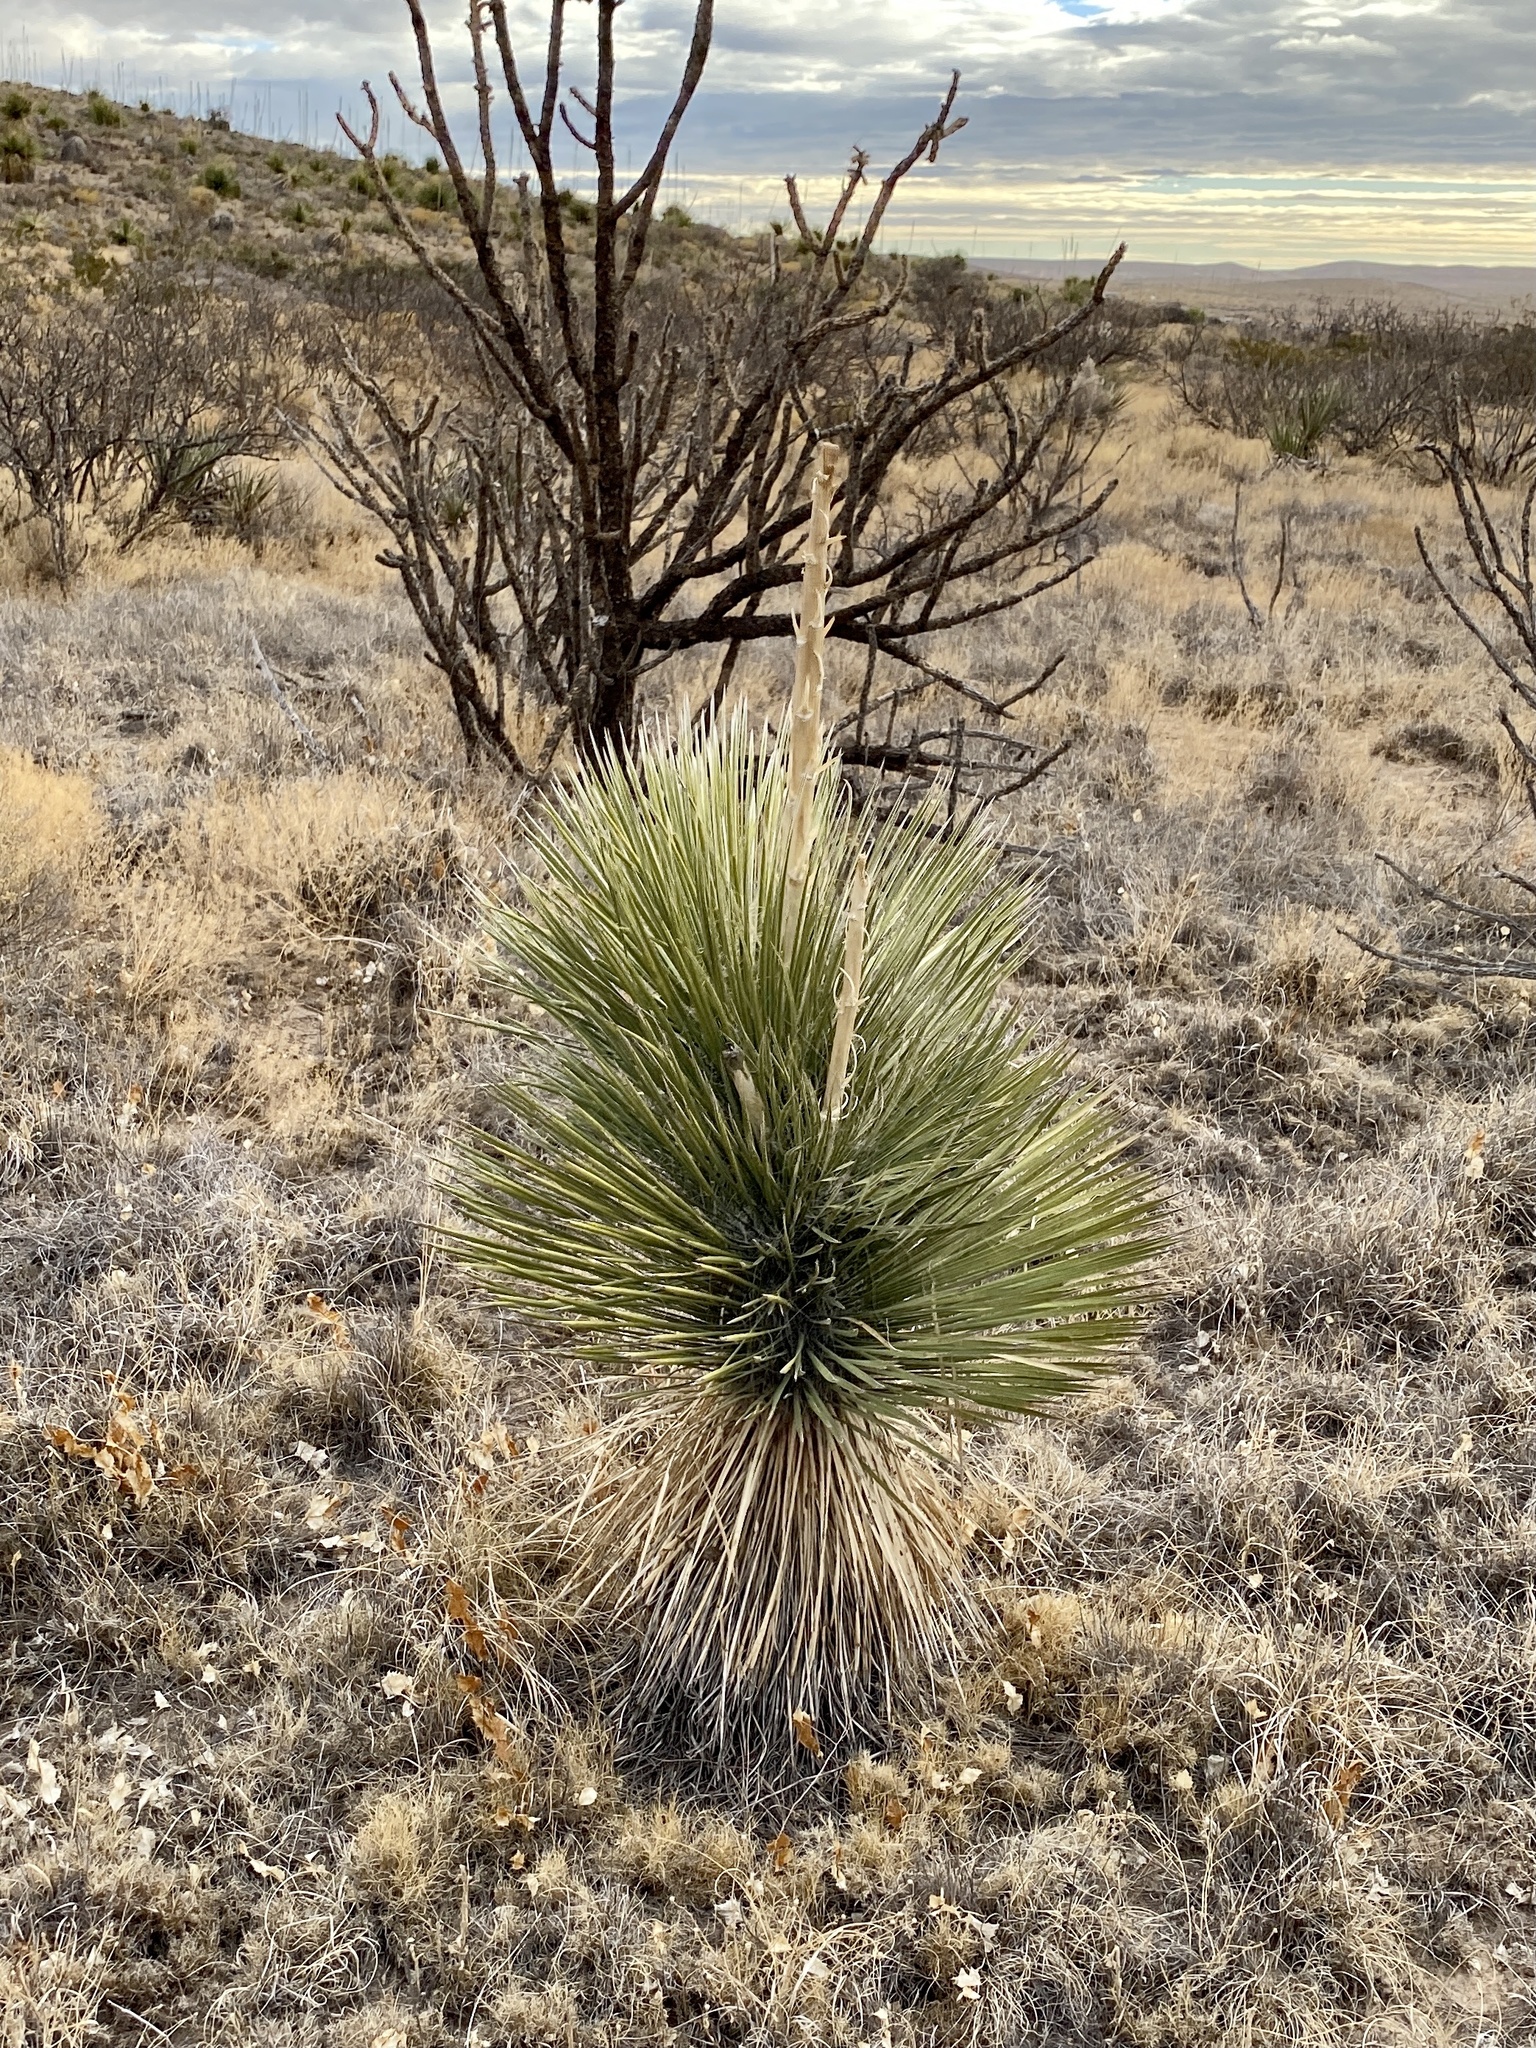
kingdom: Plantae
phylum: Tracheophyta
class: Liliopsida
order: Asparagales
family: Asparagaceae
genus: Yucca
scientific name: Yucca elata
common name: Palmella
